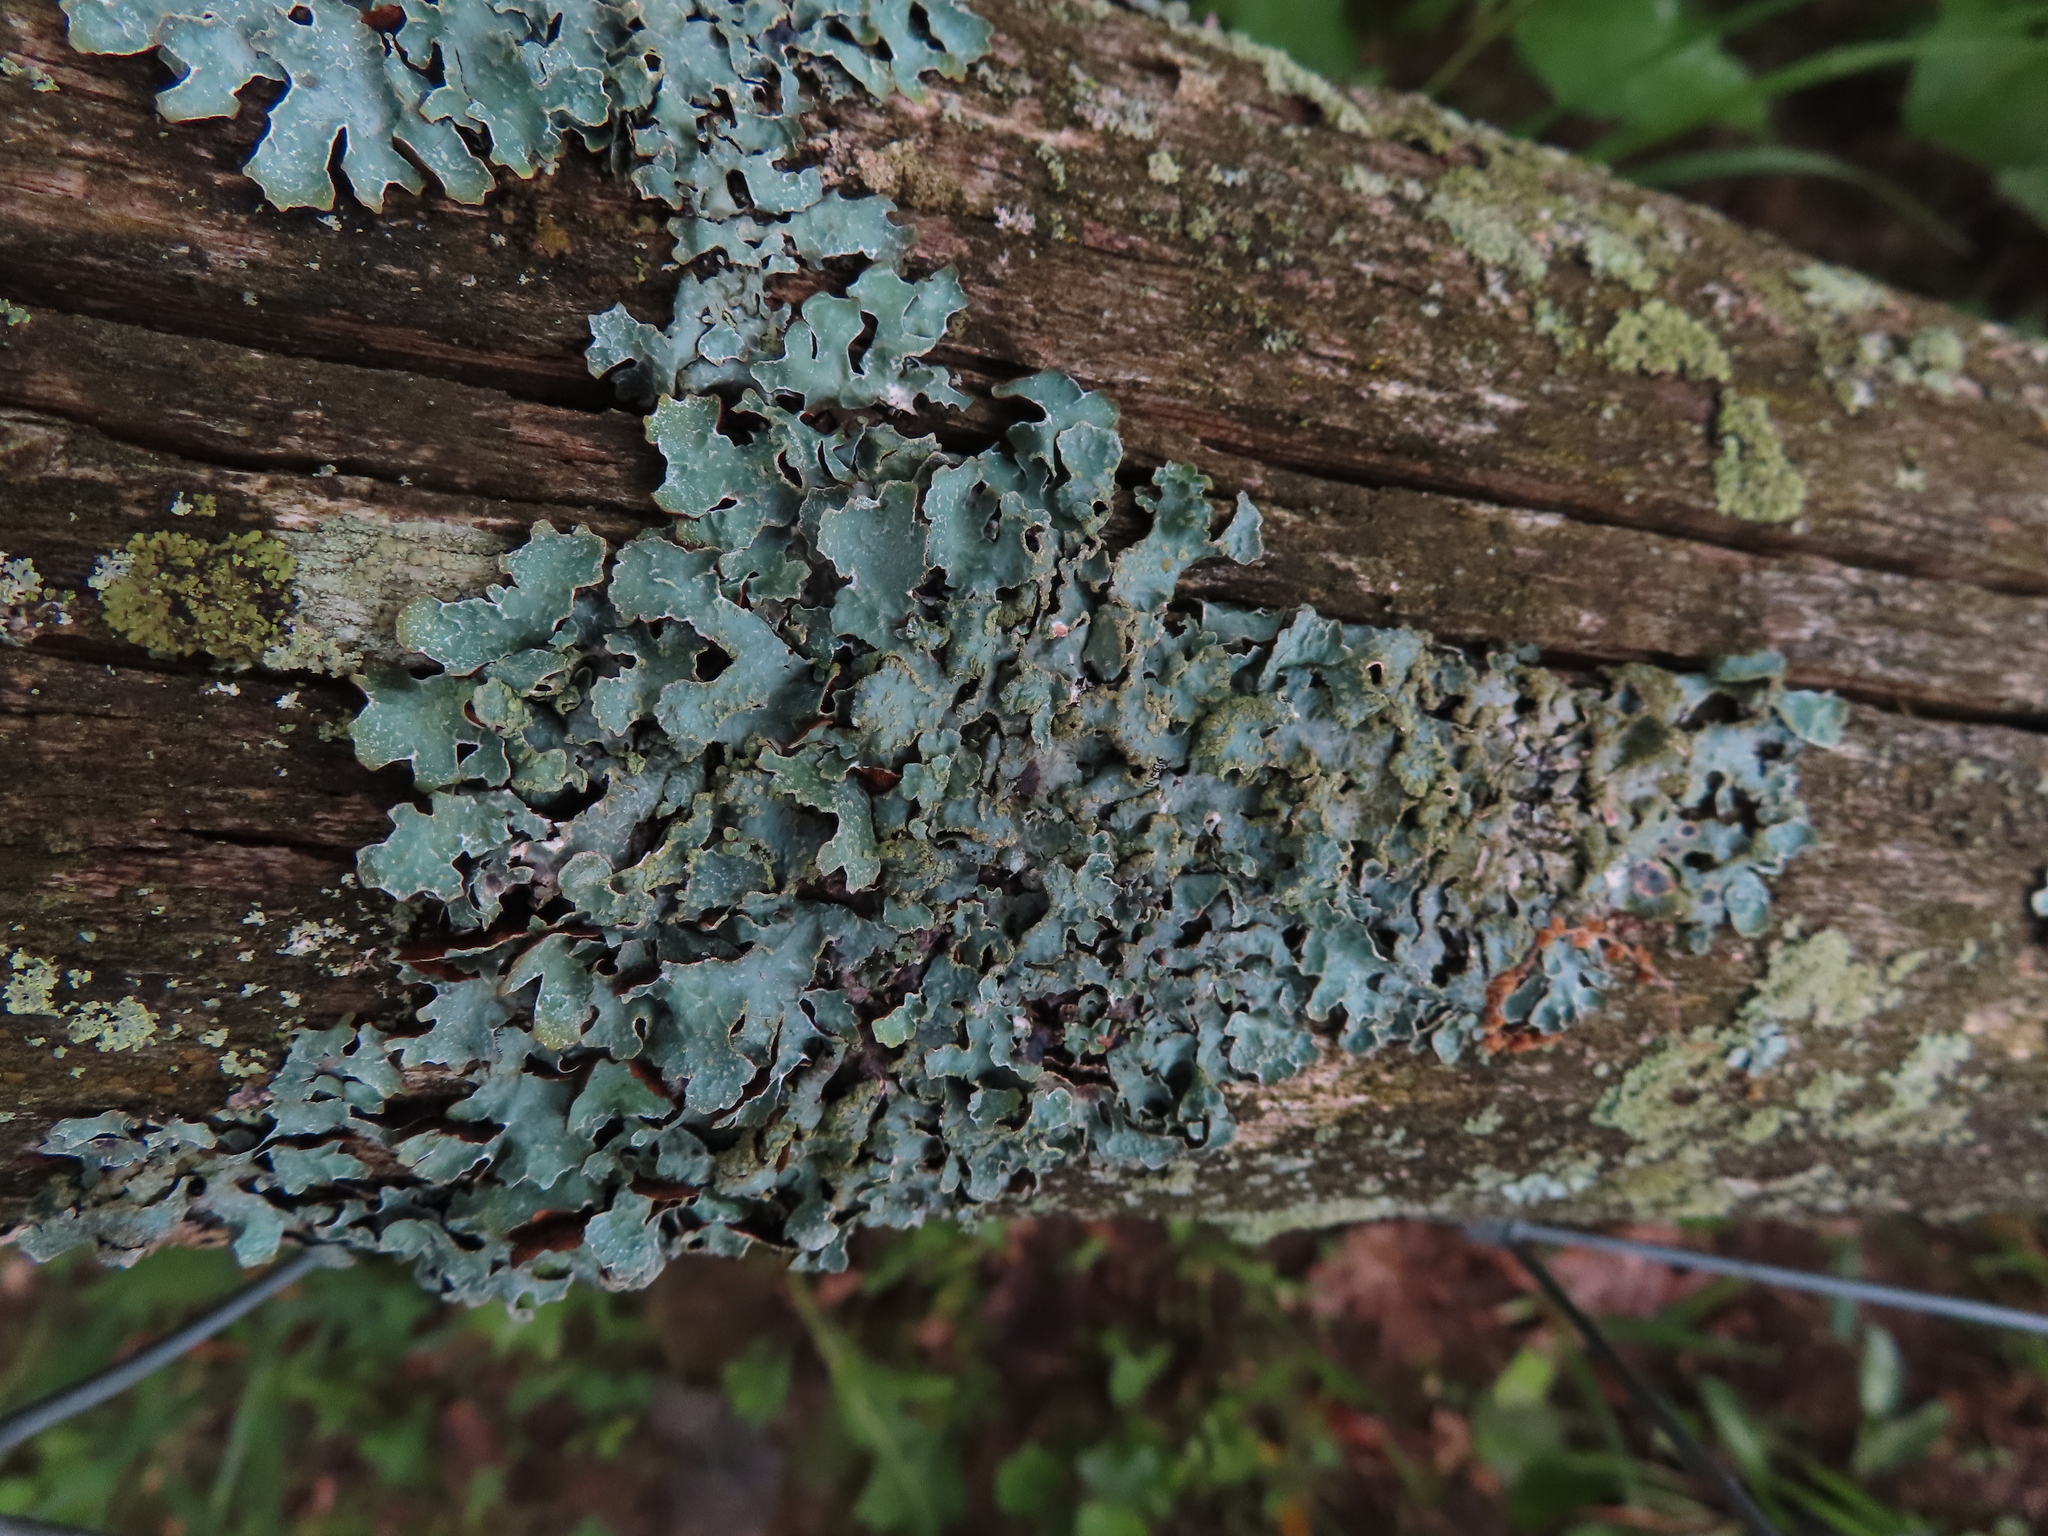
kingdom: Fungi
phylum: Ascomycota
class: Lecanoromycetes
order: Lecanorales
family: Parmeliaceae
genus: Parmelia
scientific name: Parmelia sulcata
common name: Netted shield lichen
